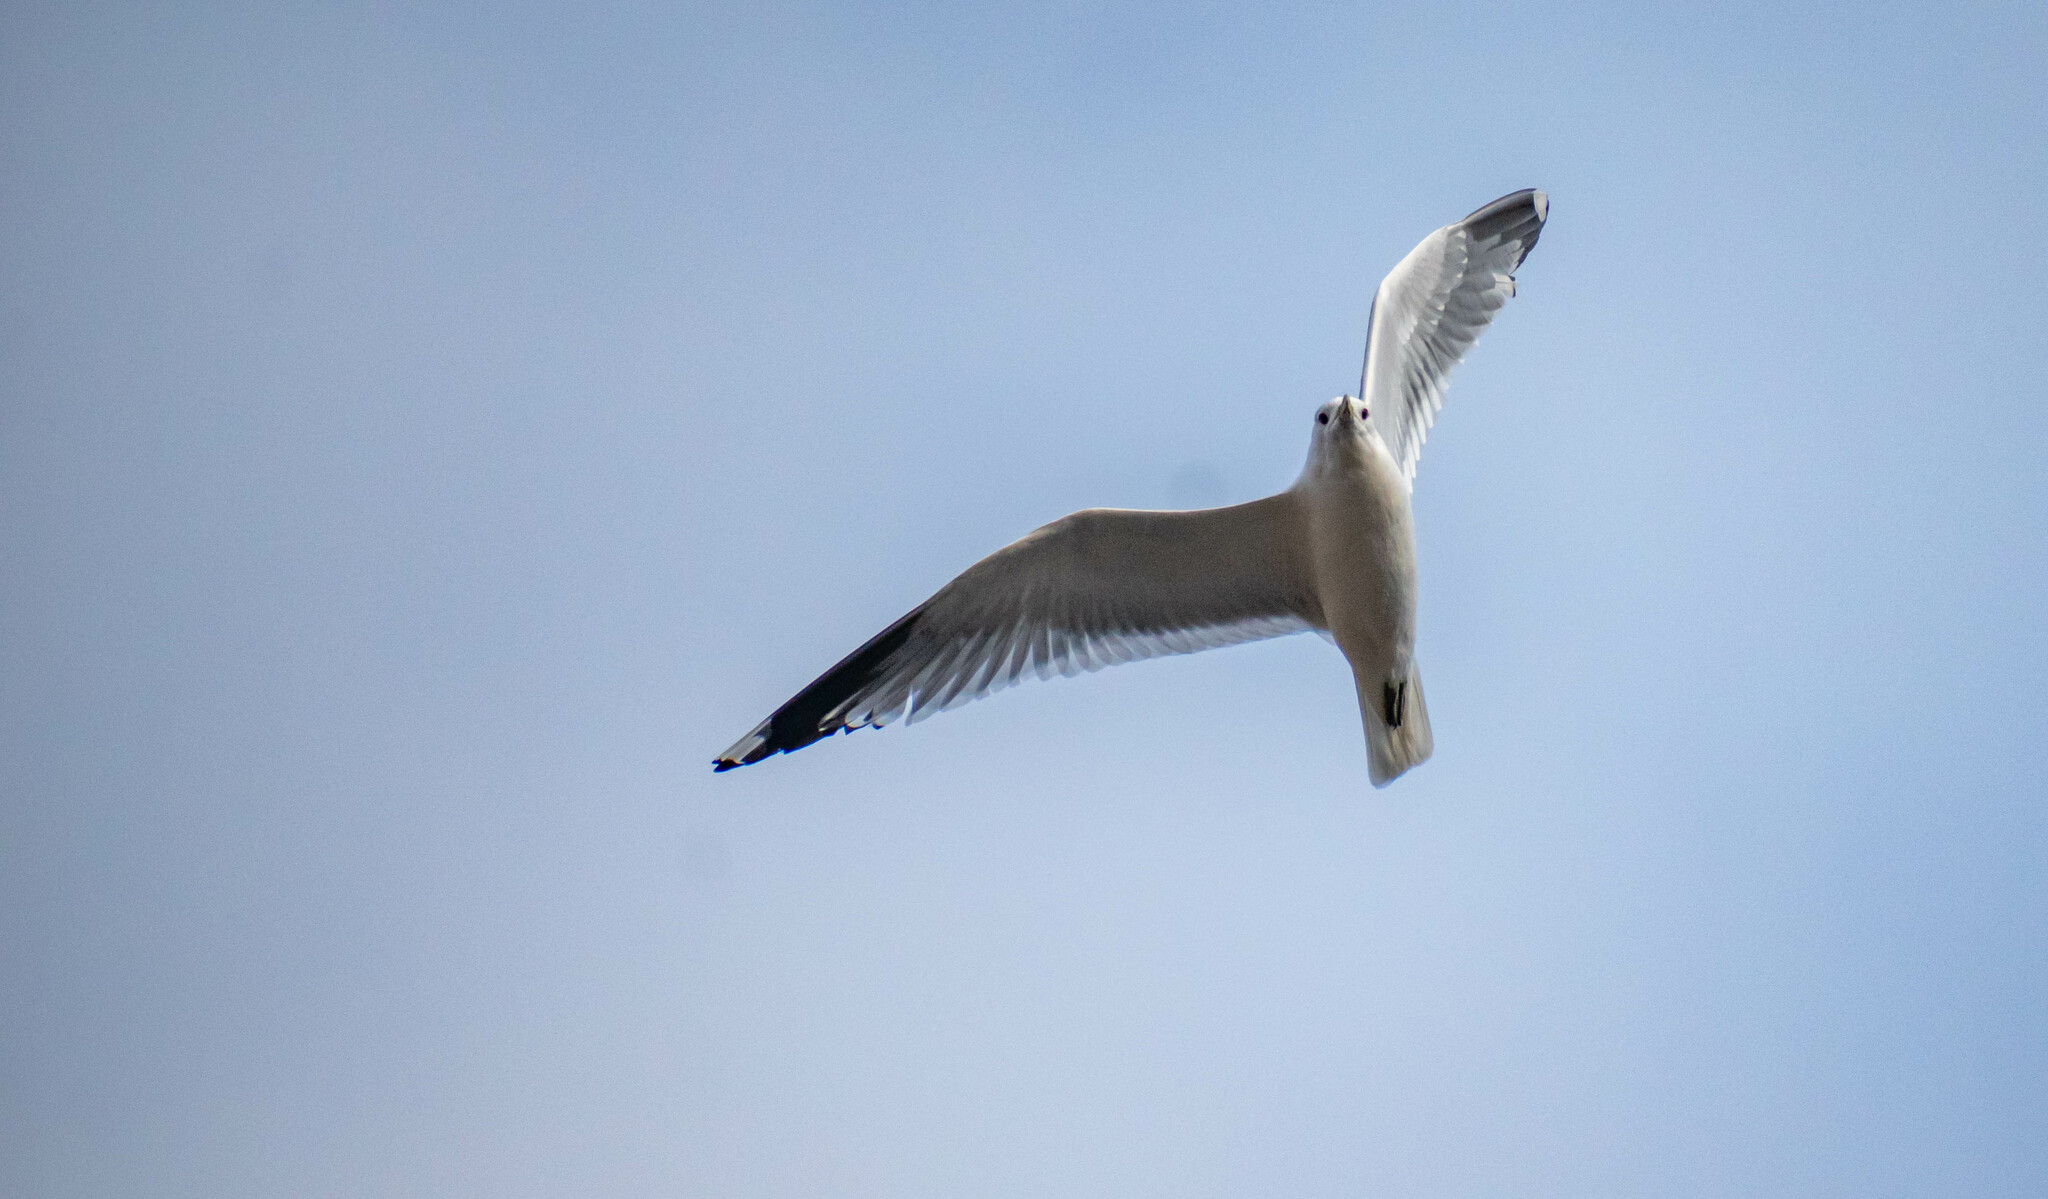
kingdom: Animalia
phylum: Chordata
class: Aves
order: Charadriiformes
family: Laridae
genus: Larus
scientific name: Larus canus
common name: Mew gull
